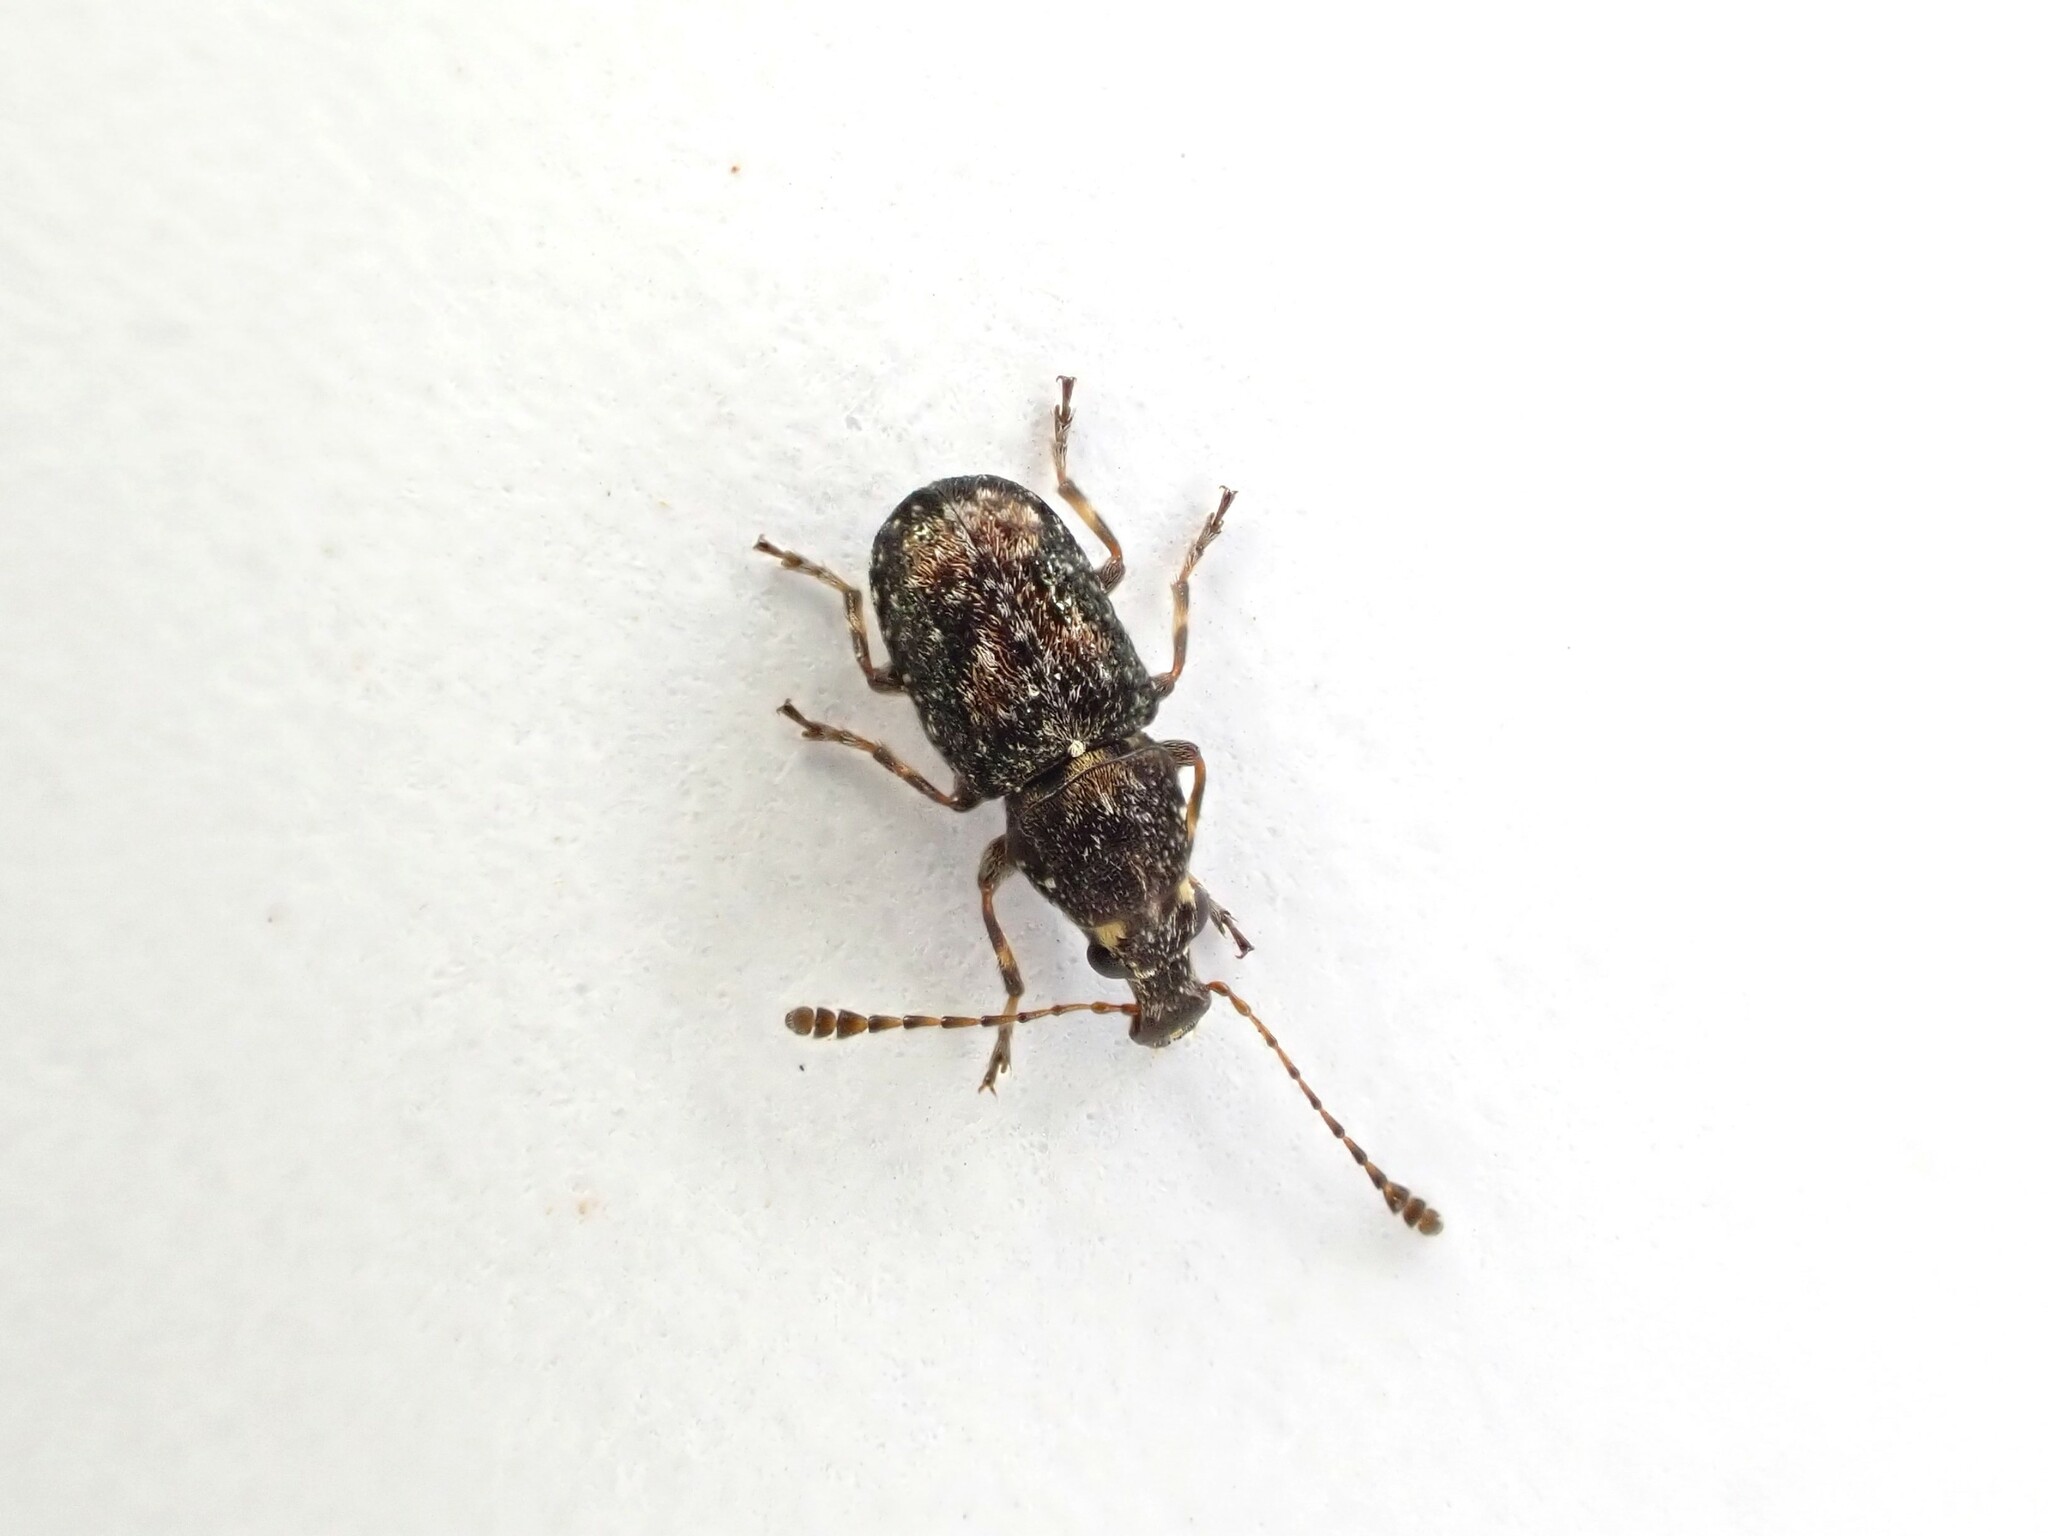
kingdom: Animalia
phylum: Arthropoda
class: Insecta
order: Coleoptera
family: Anthribidae
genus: Sharpius
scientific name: Sharpius
